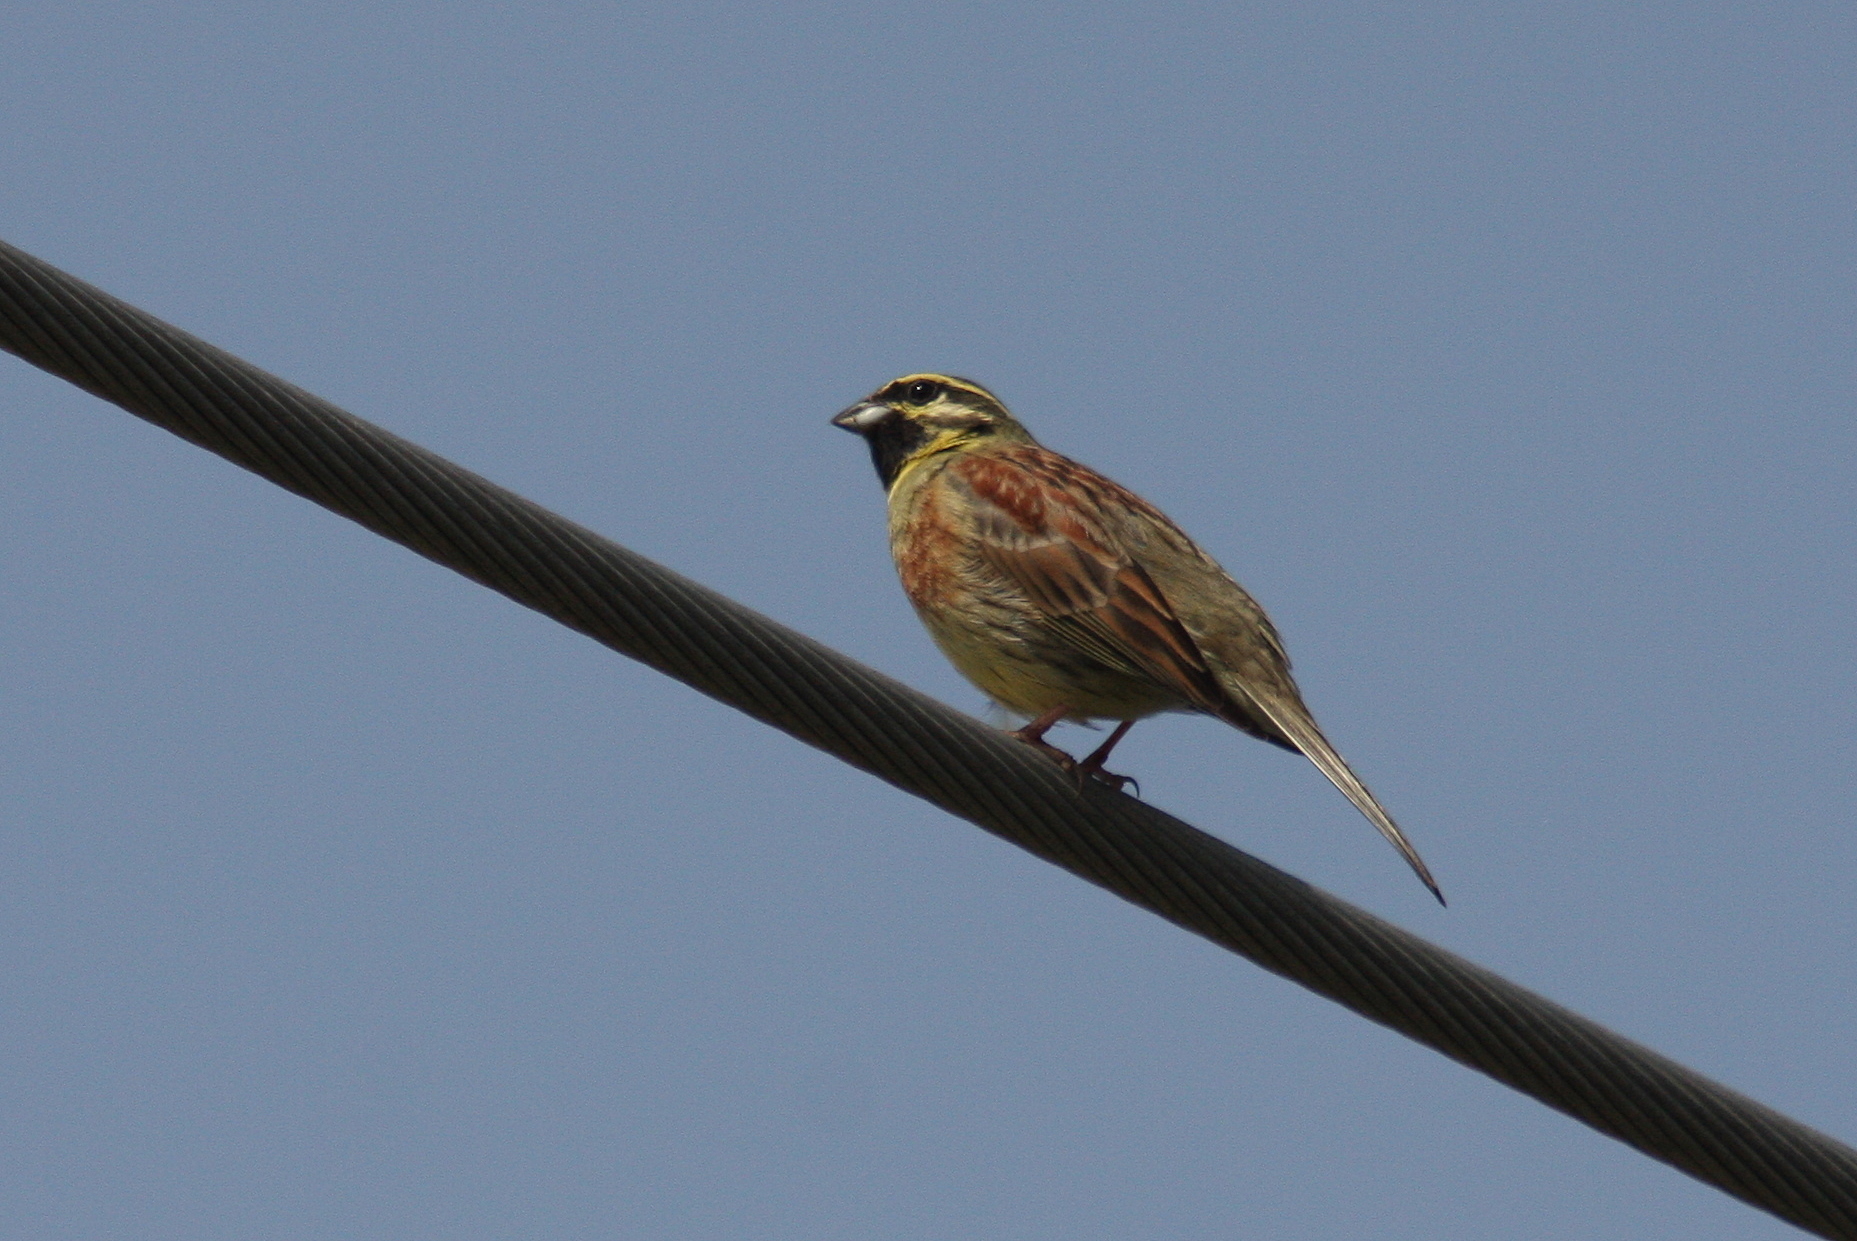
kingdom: Animalia
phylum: Chordata
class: Aves
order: Passeriformes
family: Emberizidae
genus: Emberiza
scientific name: Emberiza cirlus
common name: Cirl bunting
